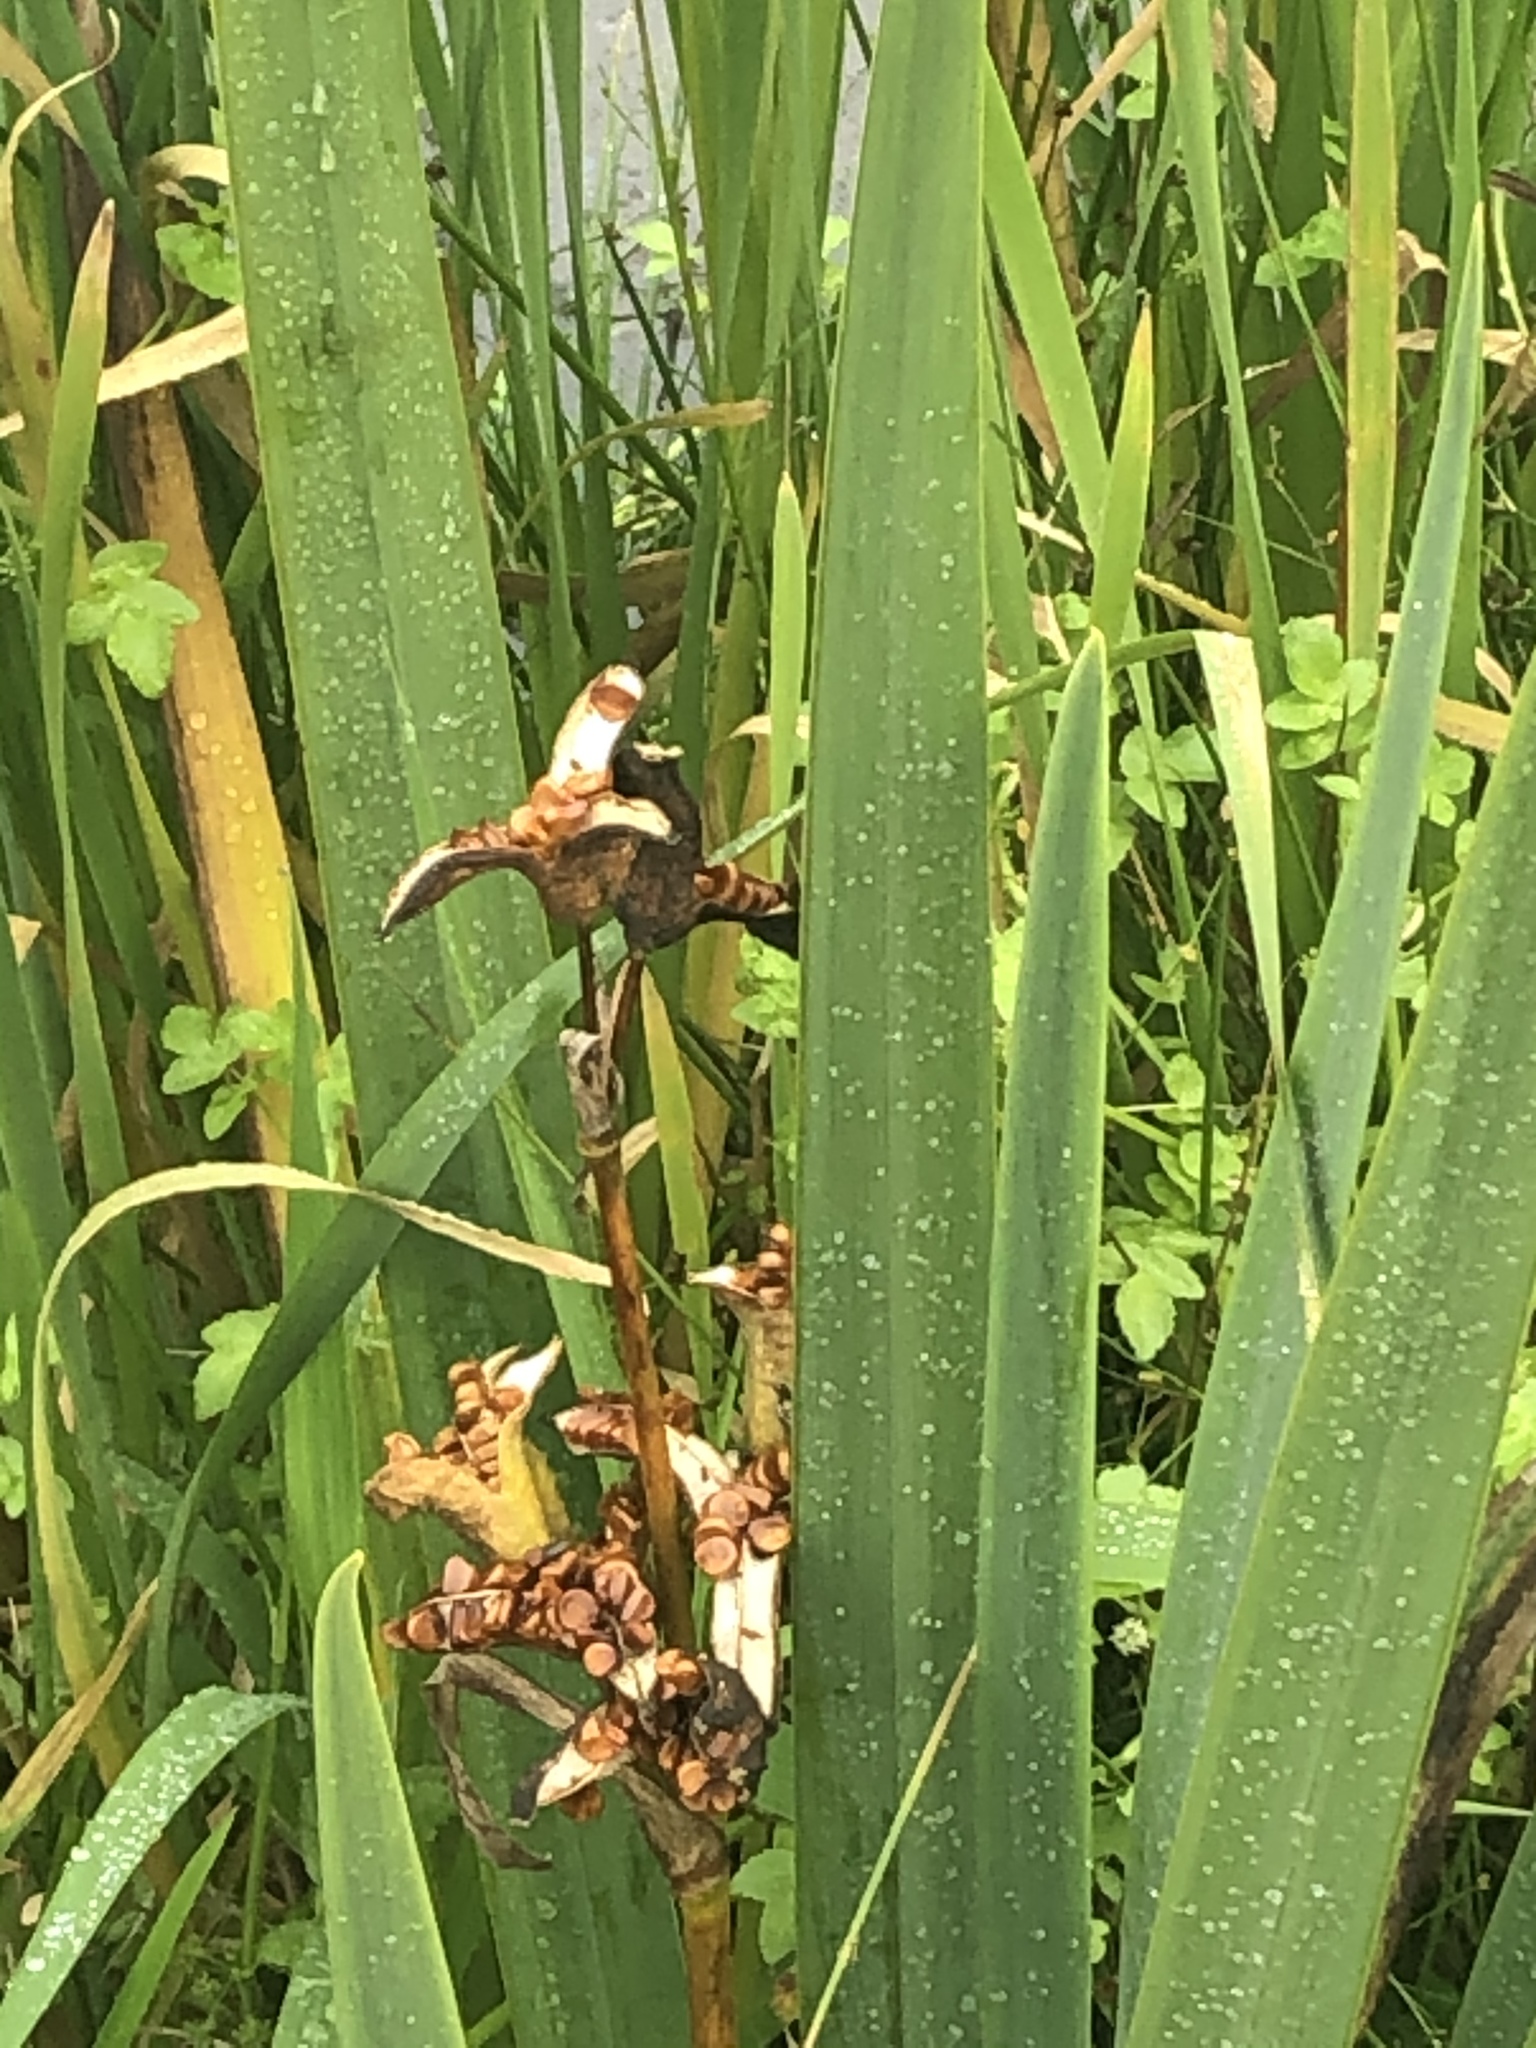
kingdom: Plantae
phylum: Tracheophyta
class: Liliopsida
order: Asparagales
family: Iridaceae
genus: Iris
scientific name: Iris pseudacorus
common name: Yellow flag
